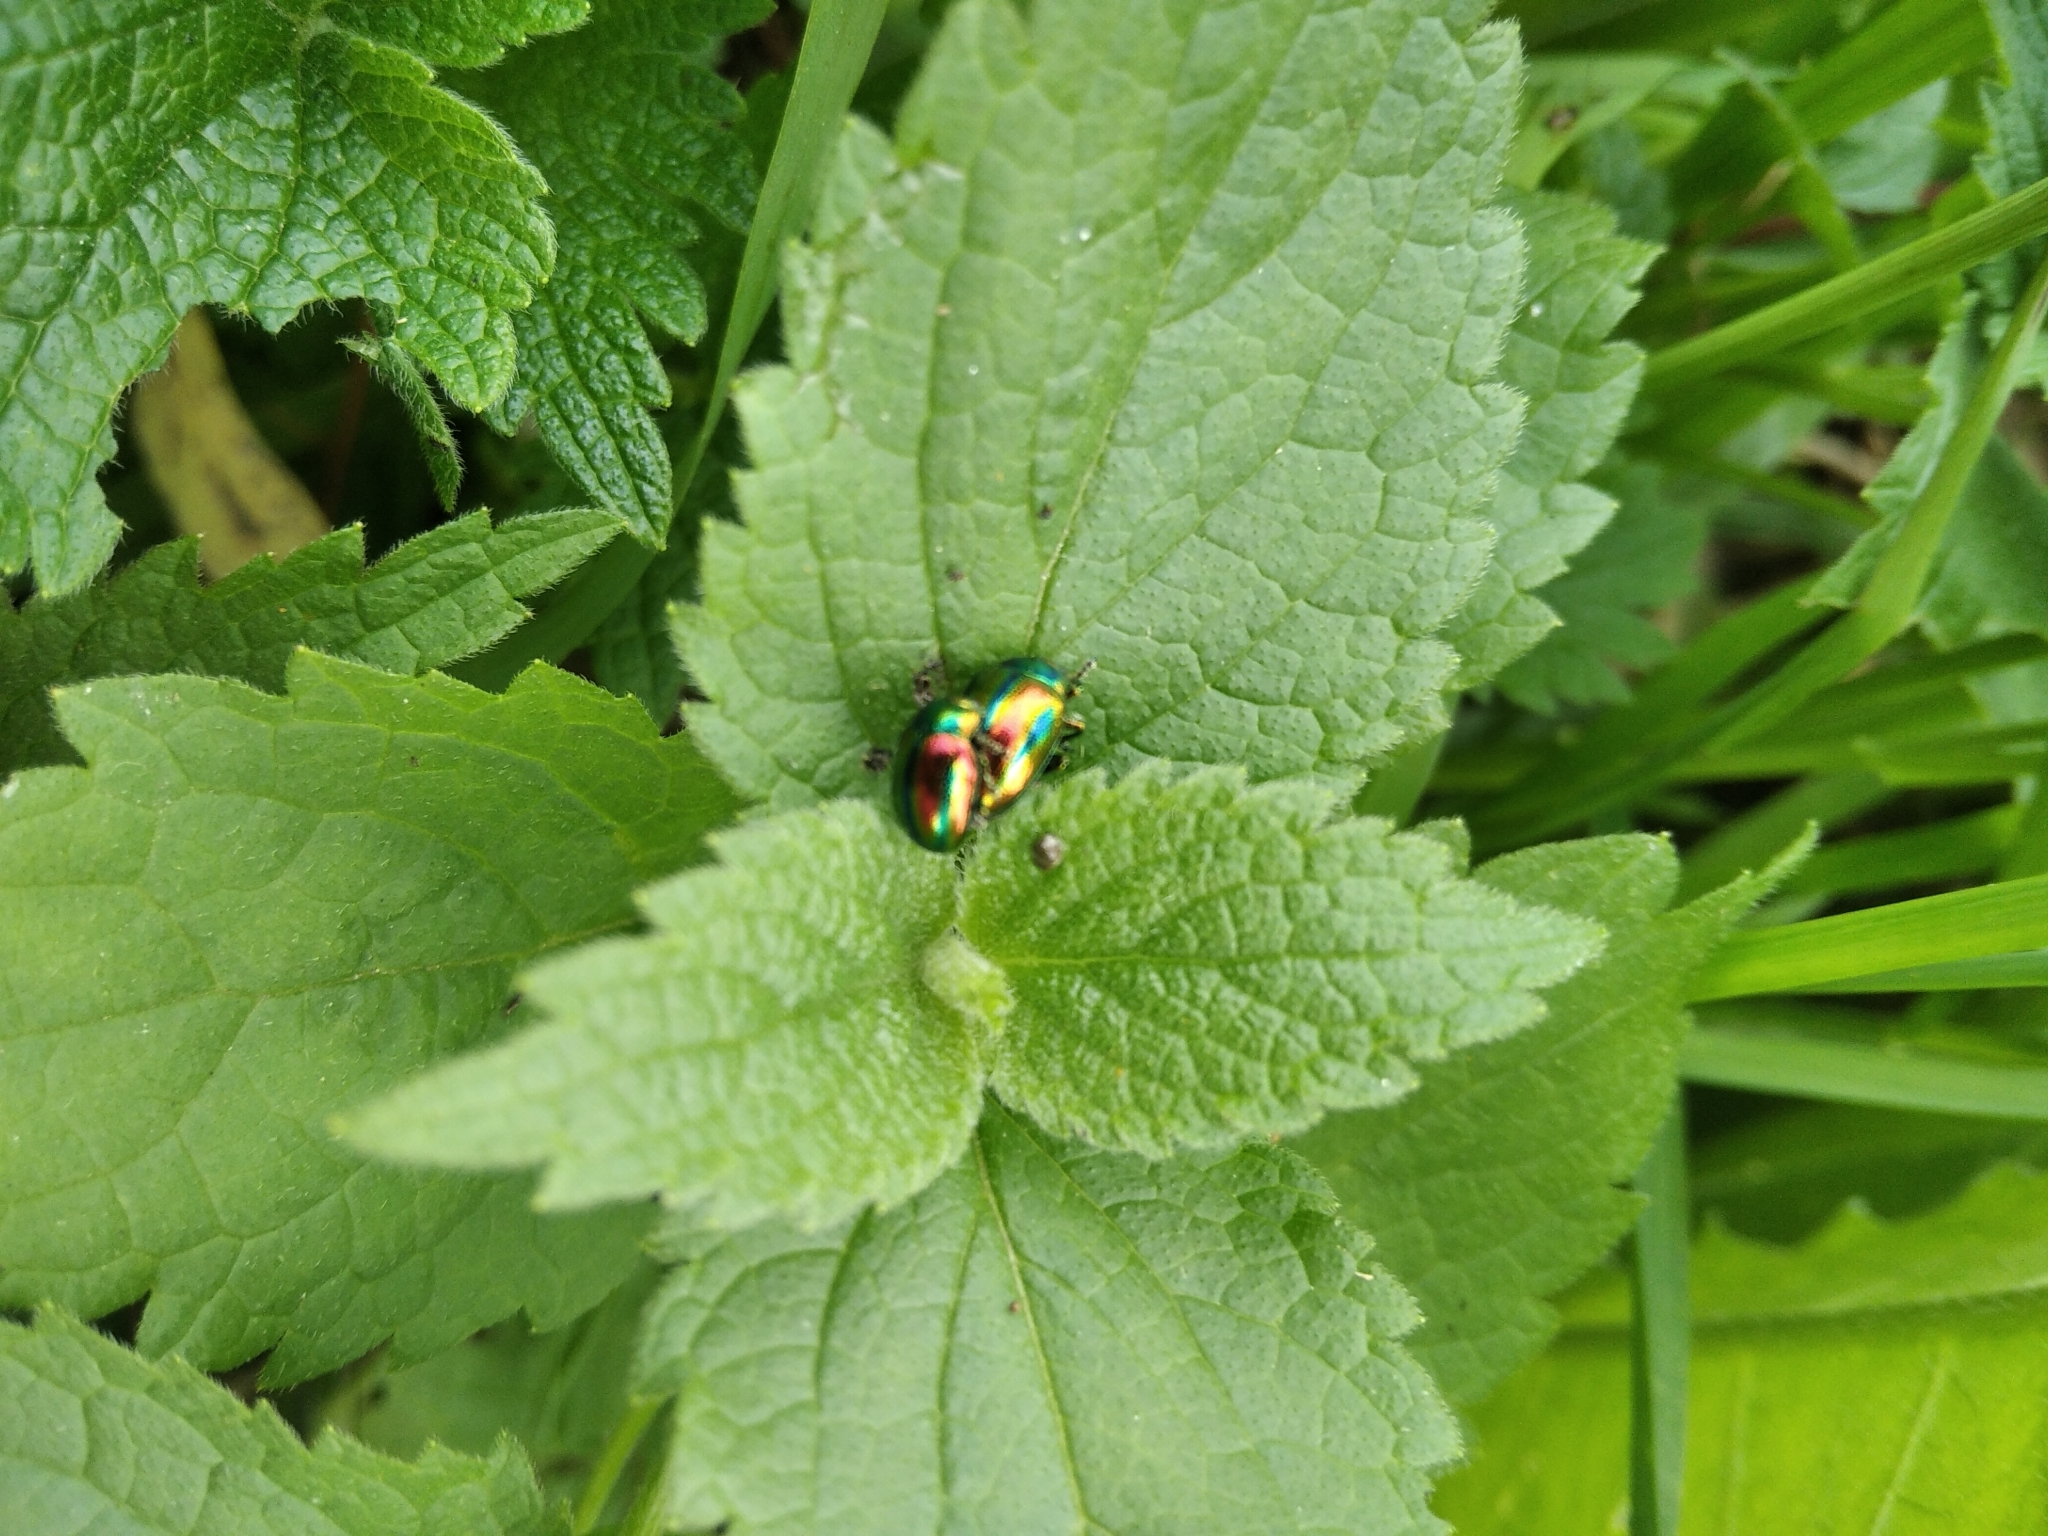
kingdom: Animalia
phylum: Arthropoda
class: Insecta
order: Coleoptera
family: Chrysomelidae
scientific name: Chrysomelidae
